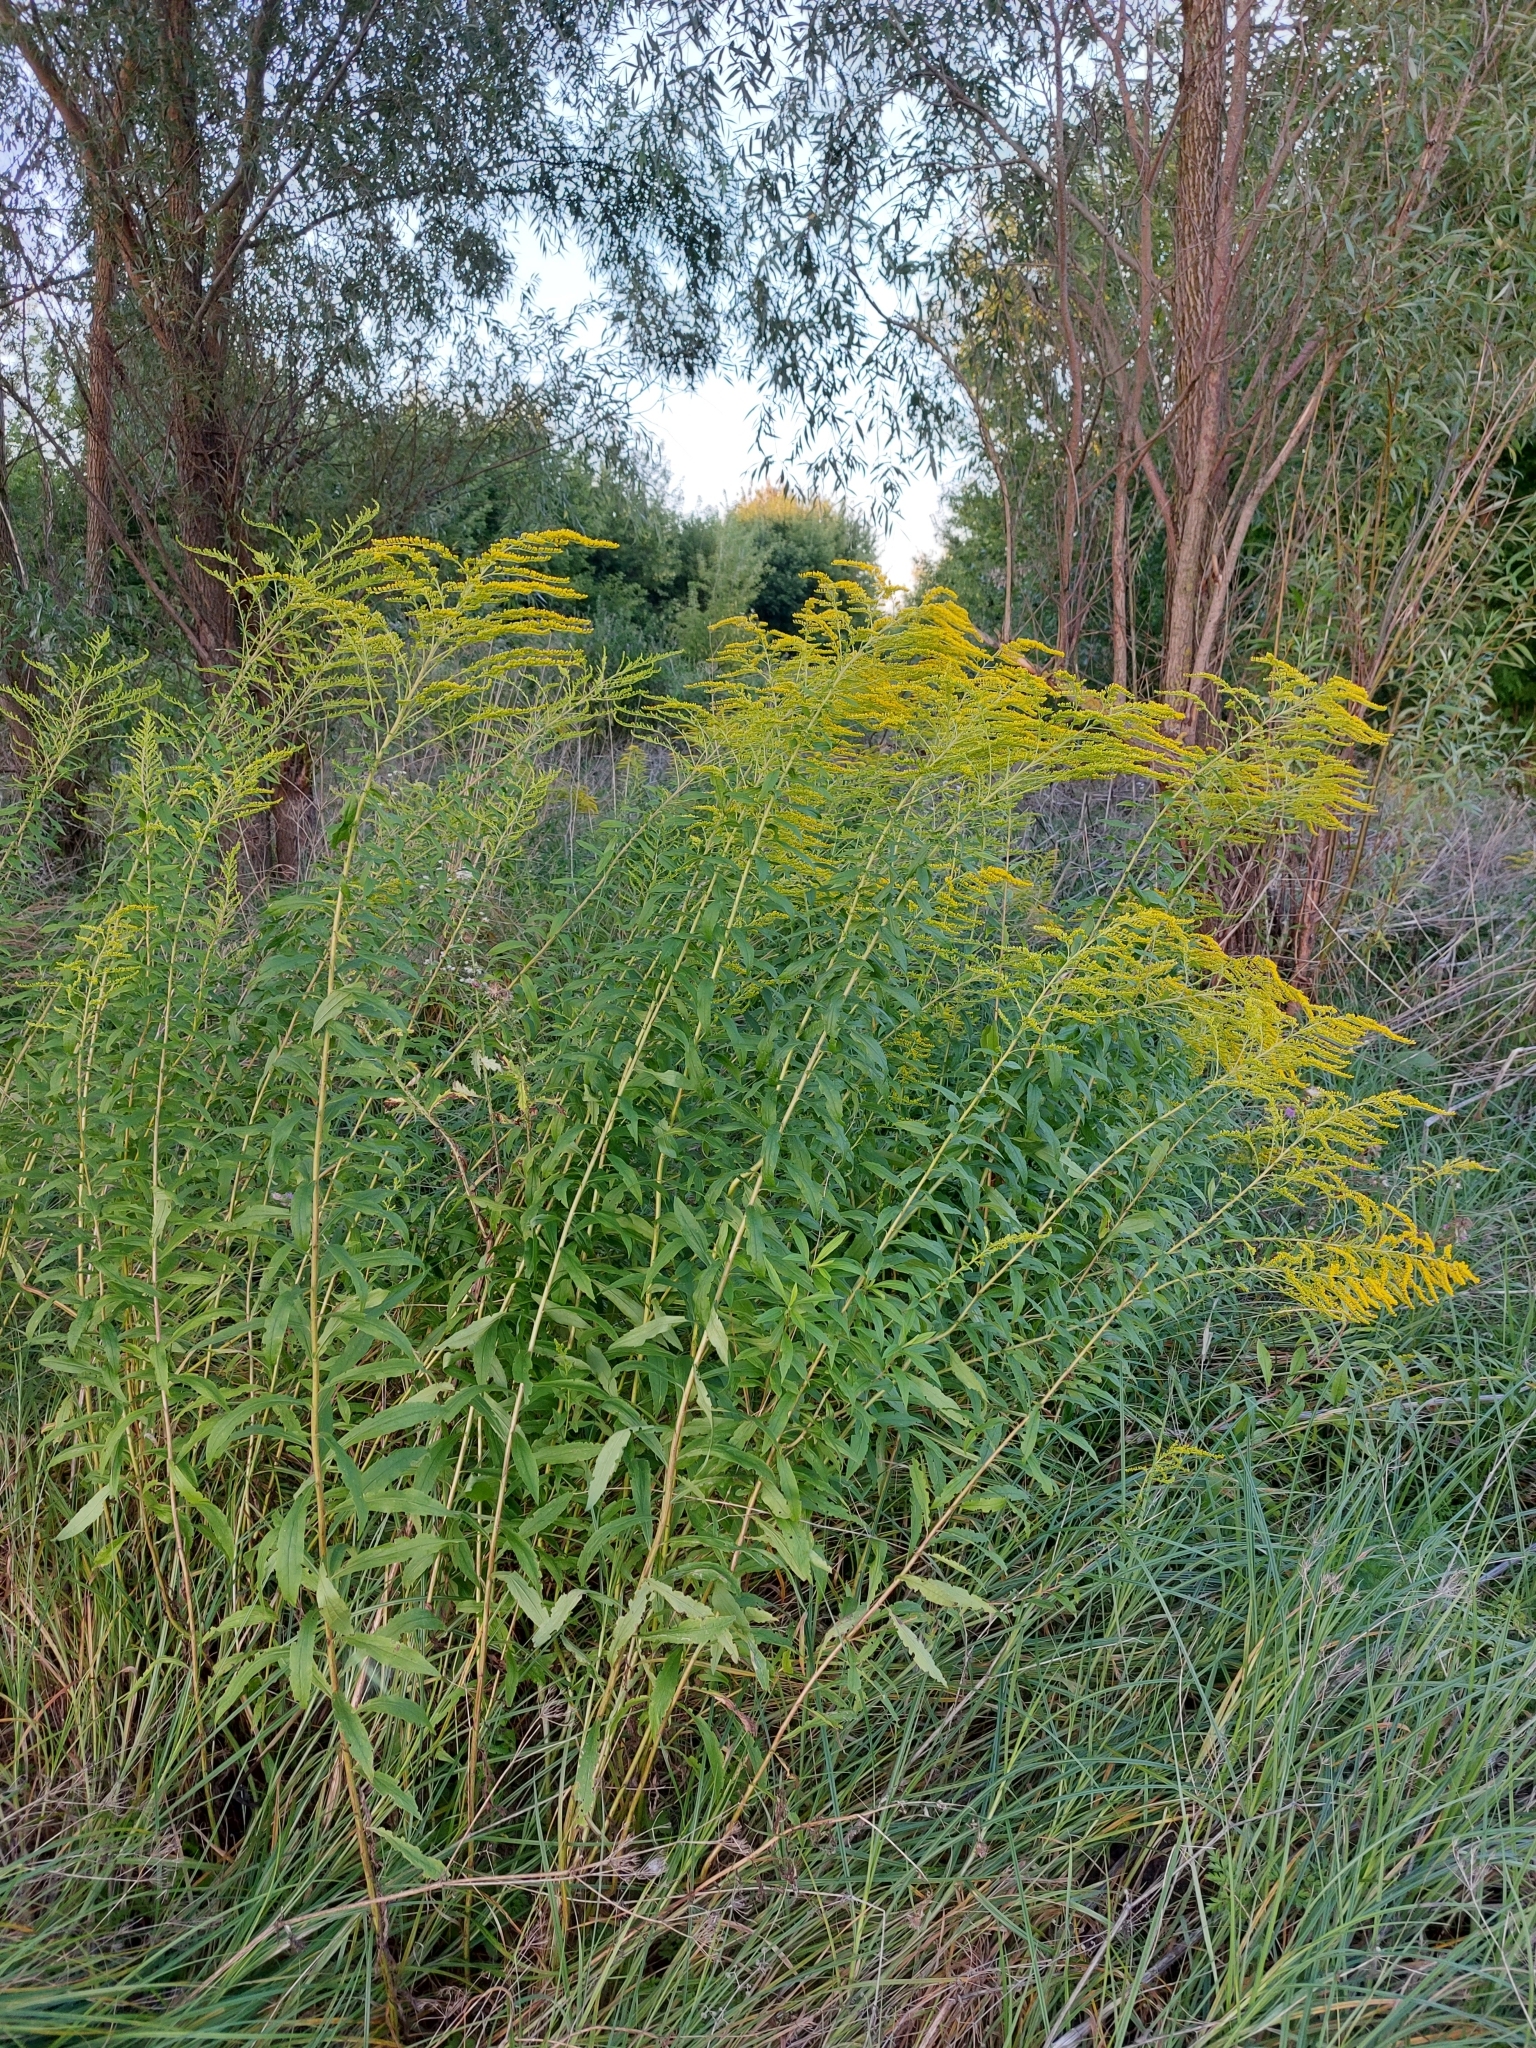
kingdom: Plantae
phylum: Tracheophyta
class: Magnoliopsida
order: Asterales
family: Asteraceae
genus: Solidago
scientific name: Solidago canadensis
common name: Canada goldenrod
